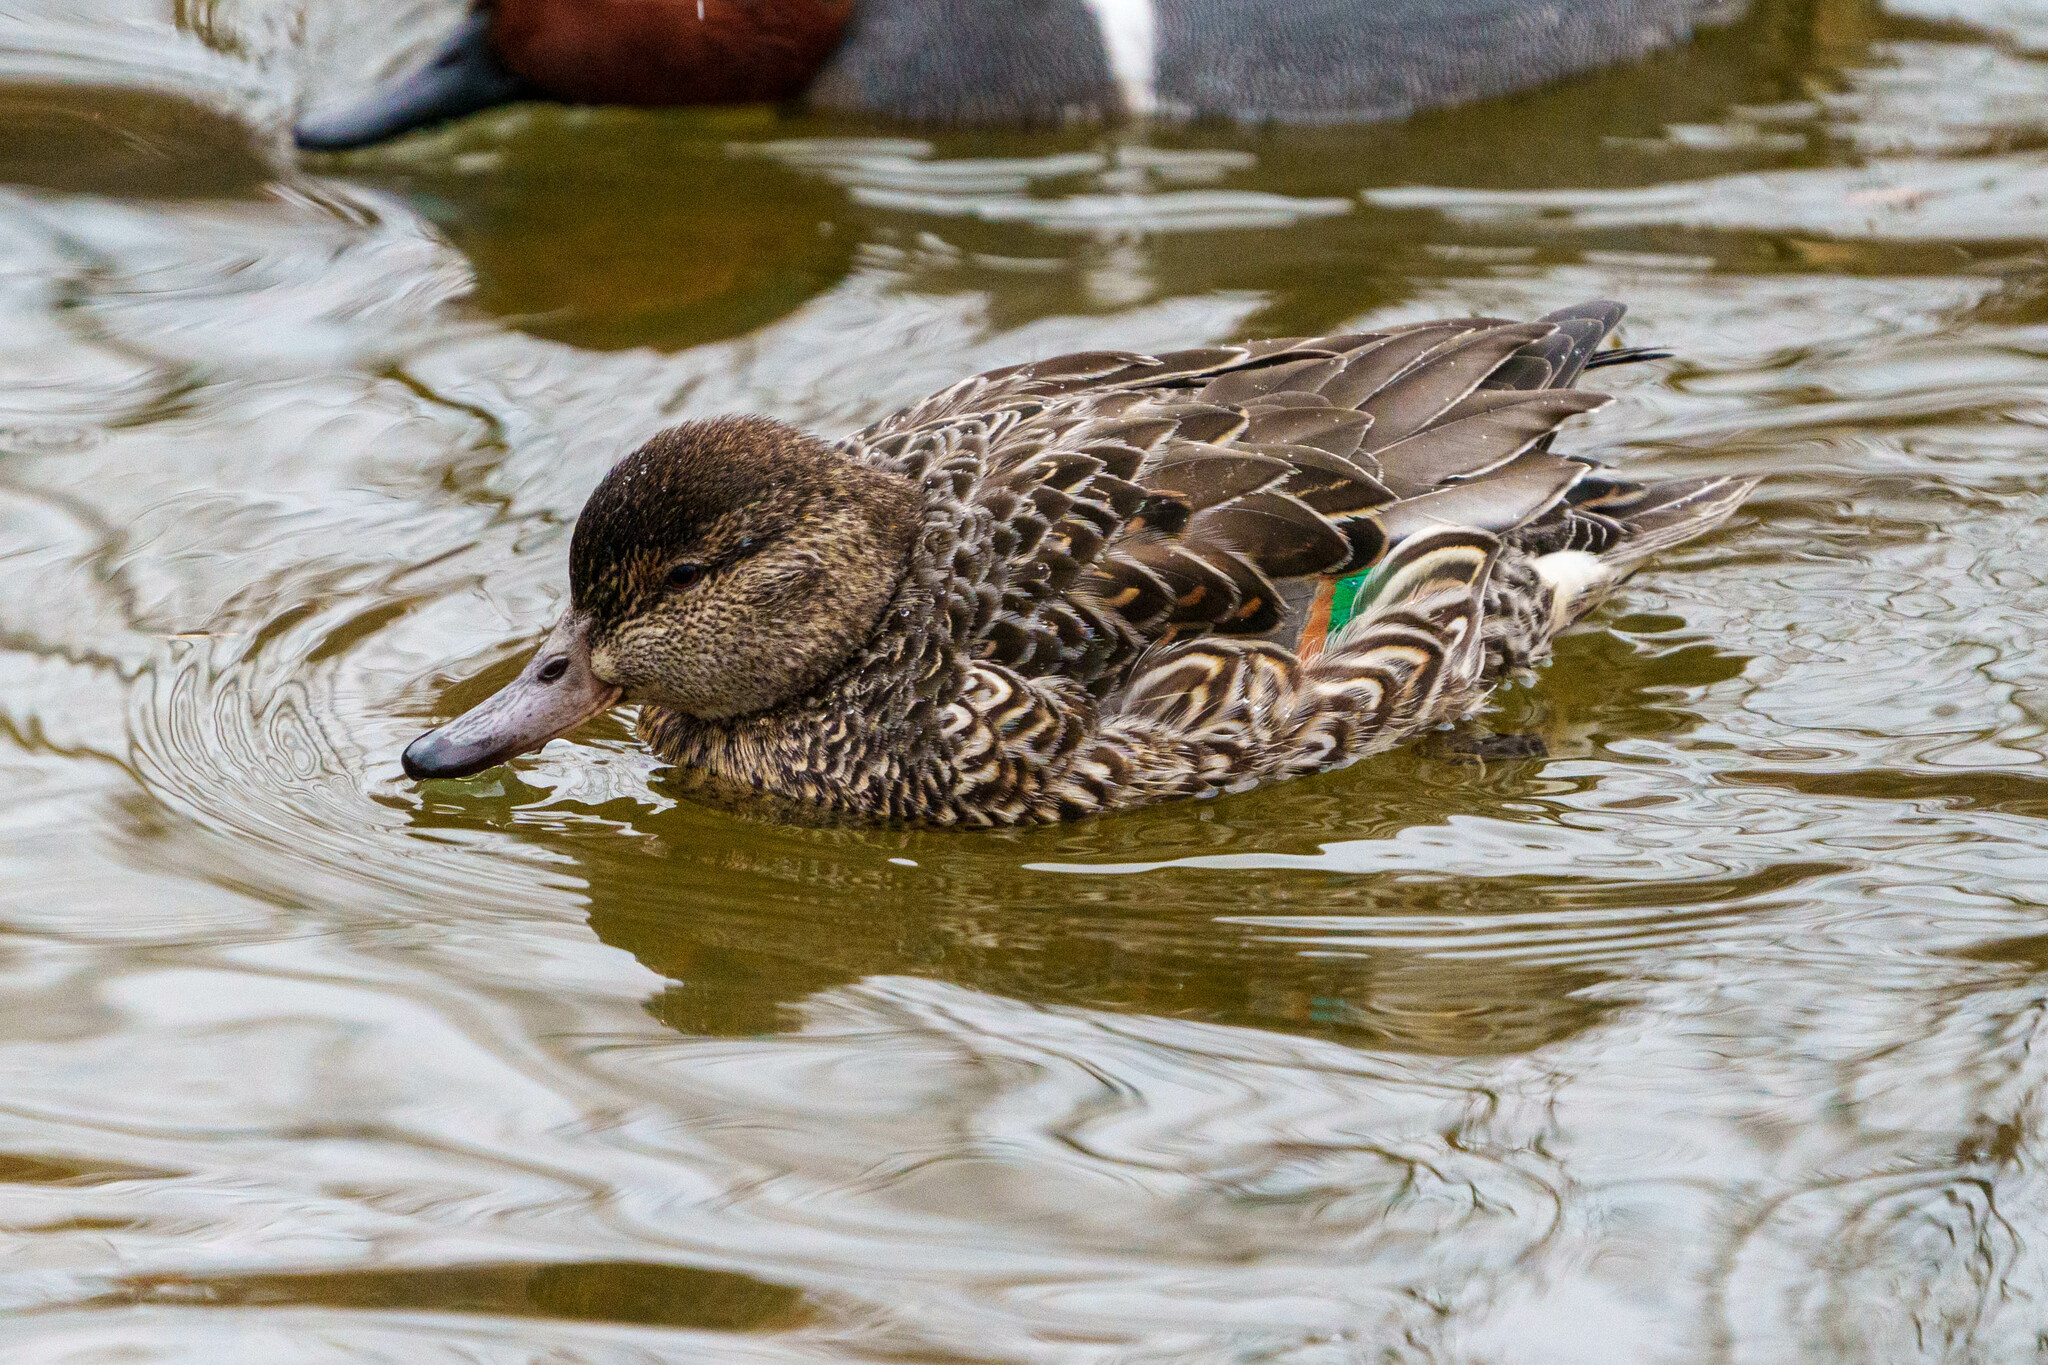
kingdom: Animalia
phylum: Chordata
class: Aves
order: Anseriformes
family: Anatidae
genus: Anas
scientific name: Anas crecca
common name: Eurasian teal
